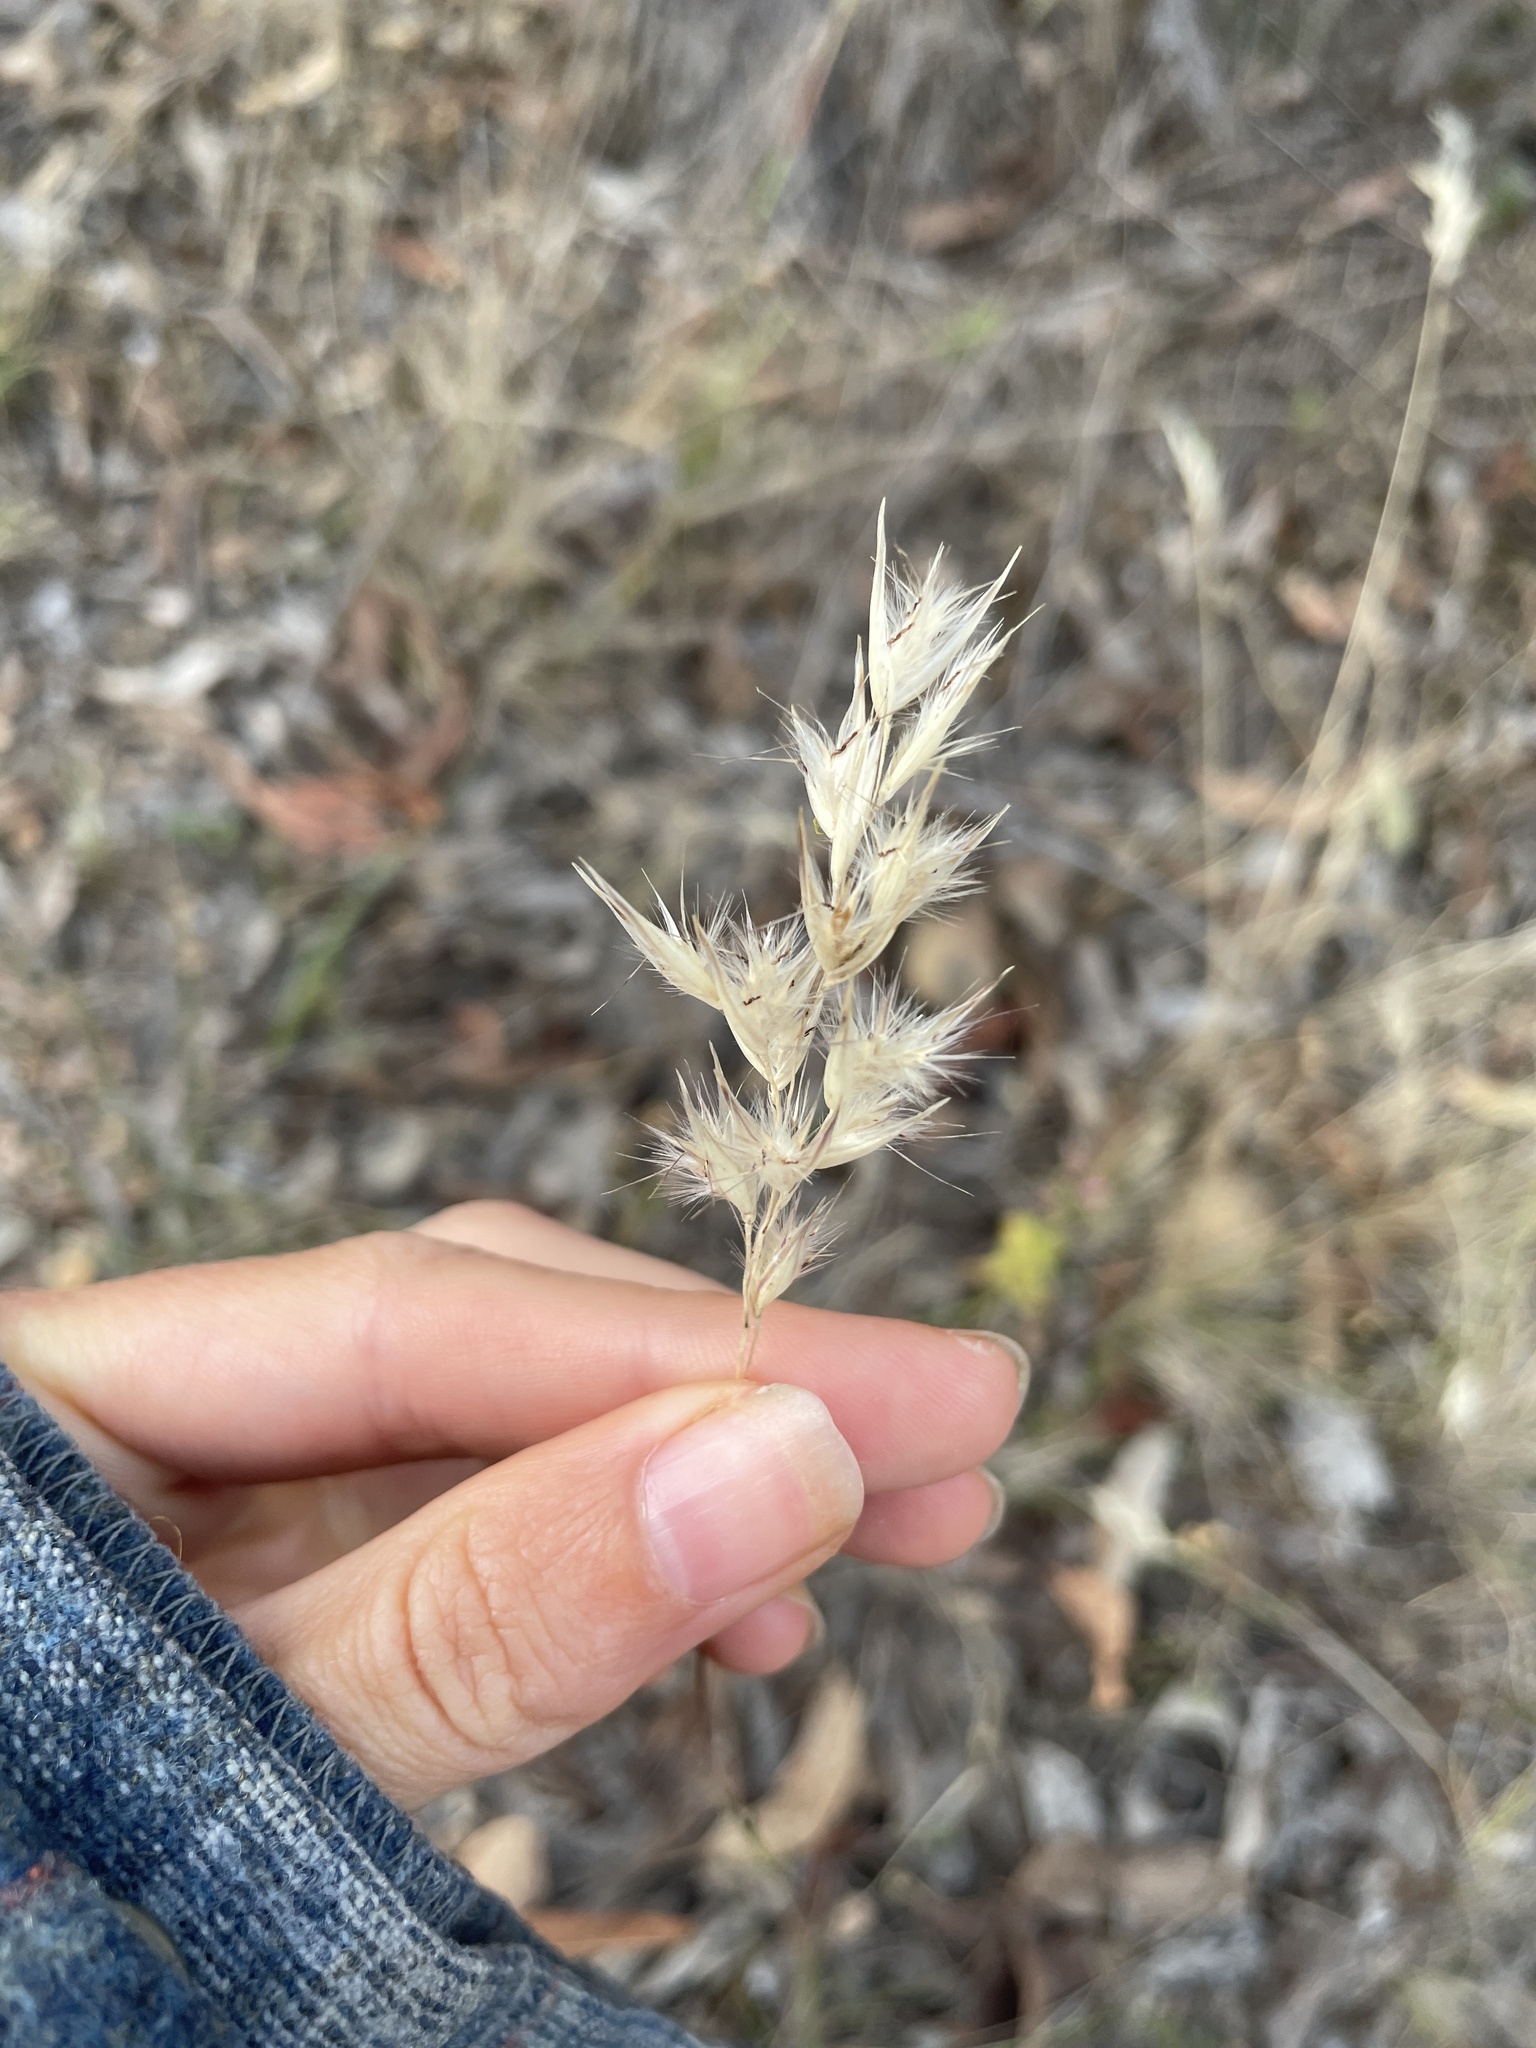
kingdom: Plantae
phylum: Tracheophyta
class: Liliopsida
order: Poales
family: Poaceae
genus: Rytidosperma
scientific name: Rytidosperma
